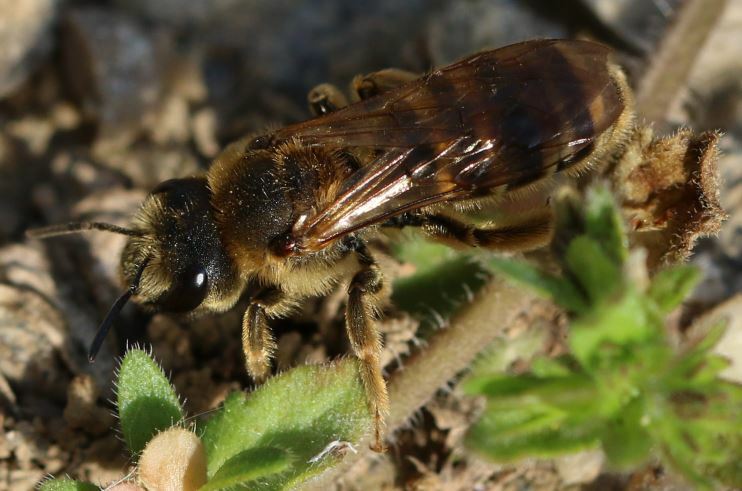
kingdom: Animalia
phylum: Arthropoda
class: Insecta
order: Hymenoptera
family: Halictidae
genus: Halictus
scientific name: Halictus scabiosae
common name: Great banded furrow bee
